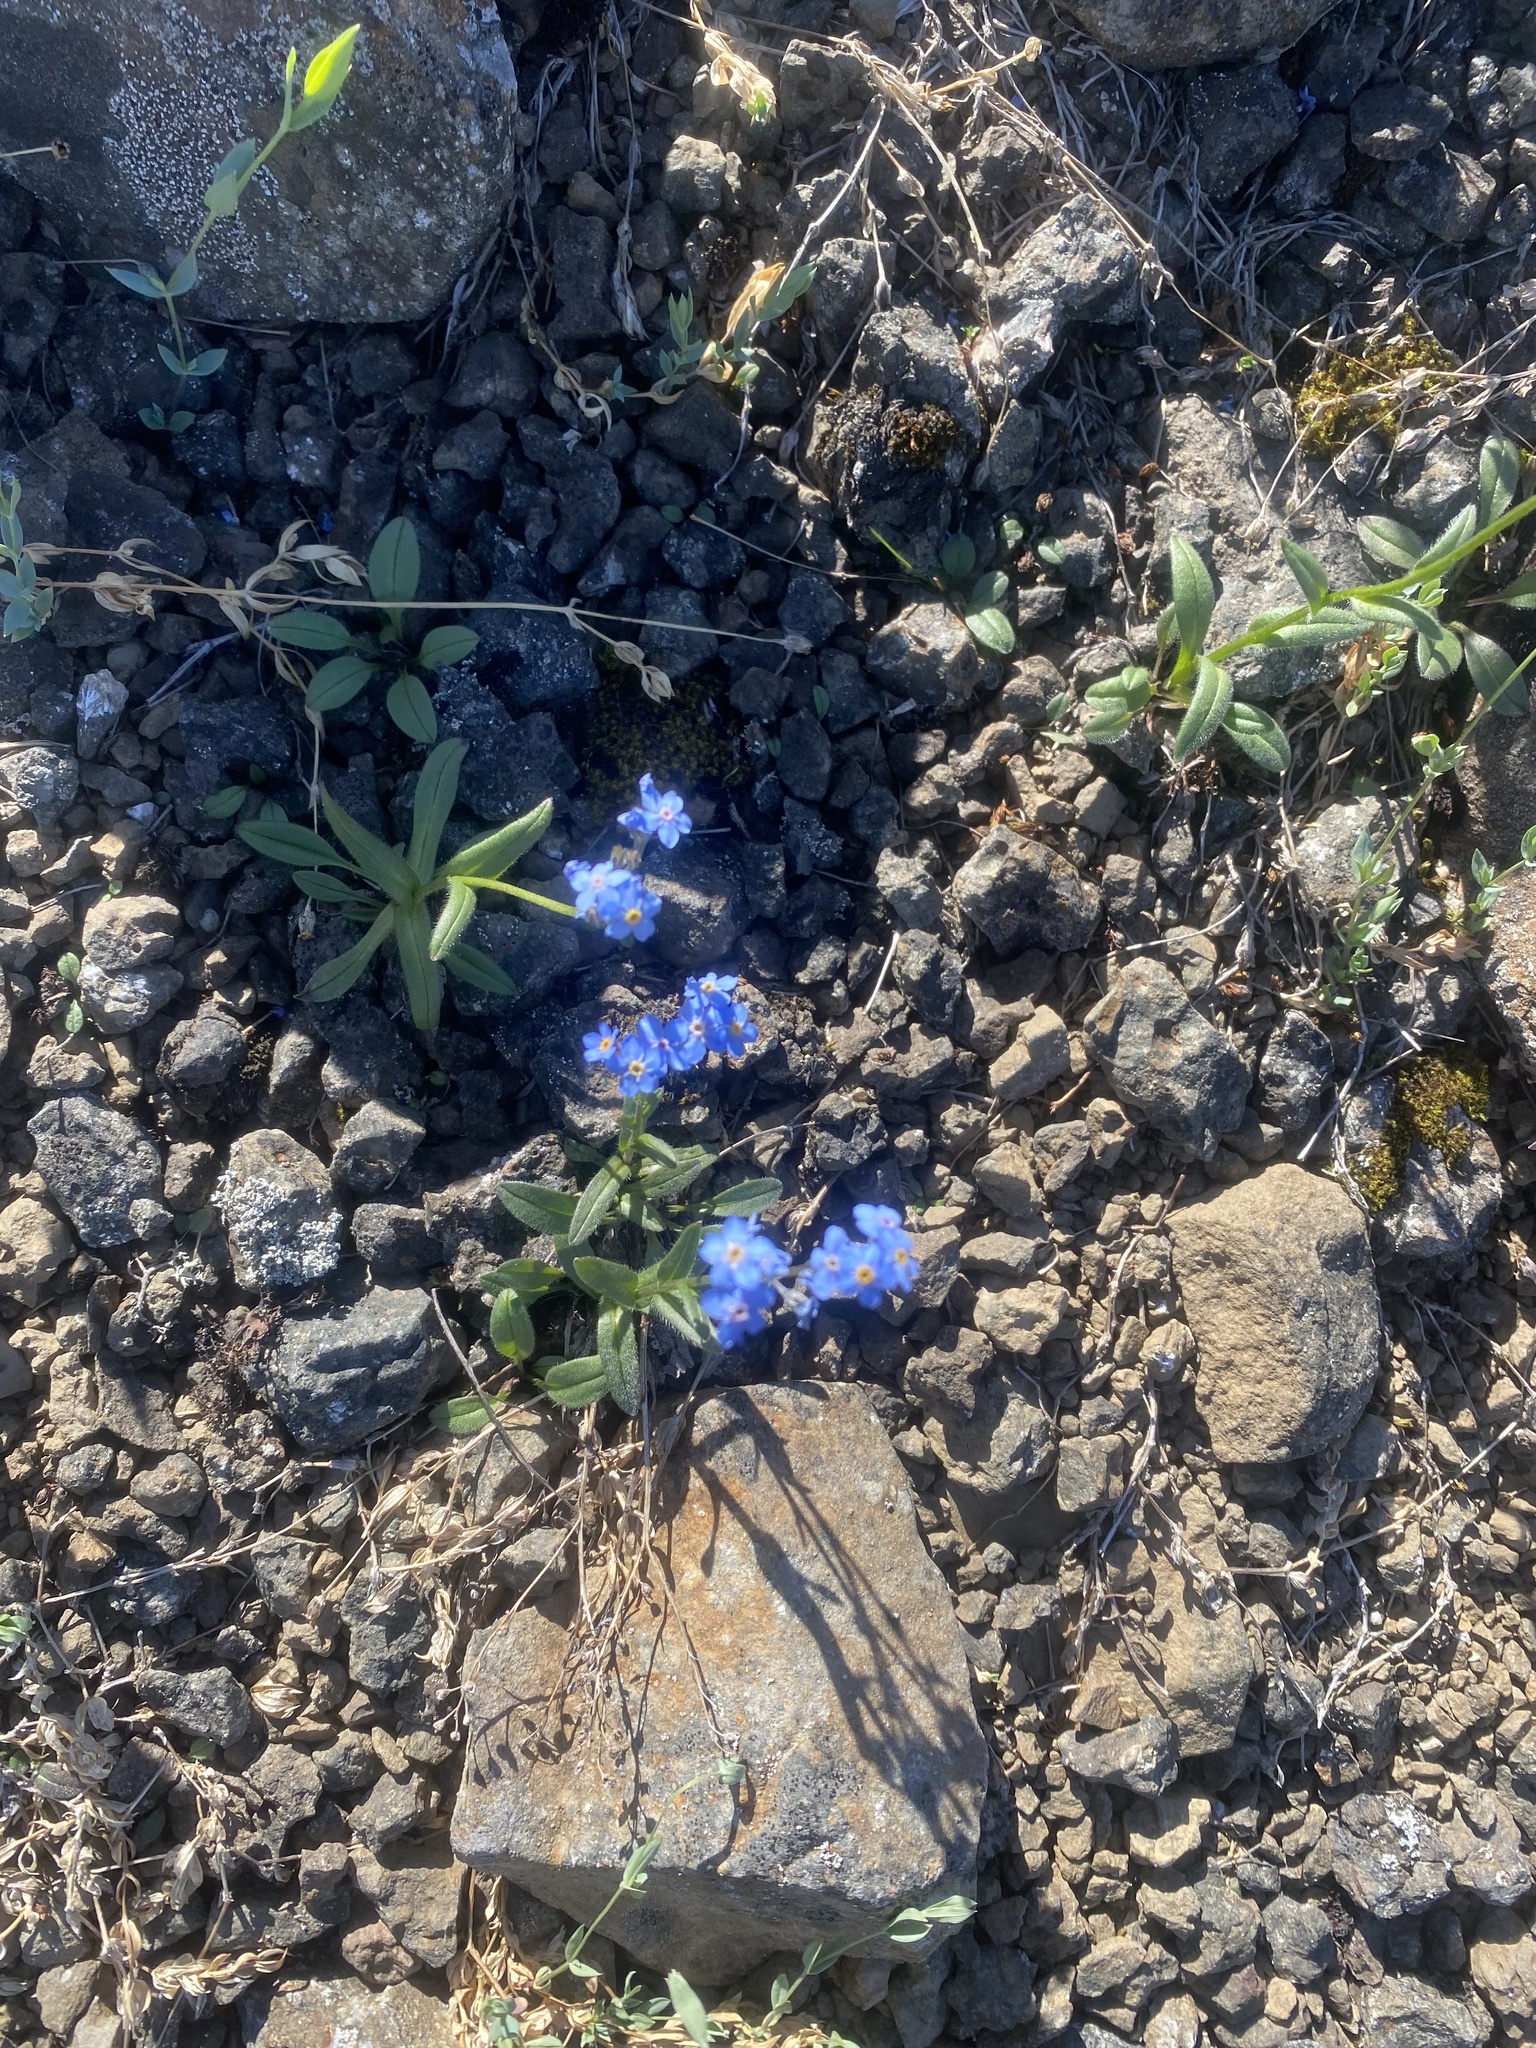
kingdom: Plantae
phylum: Tracheophyta
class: Magnoliopsida
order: Boraginales
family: Boraginaceae
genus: Myosotis
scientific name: Myosotis asiatica
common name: Asian forget-me-not
